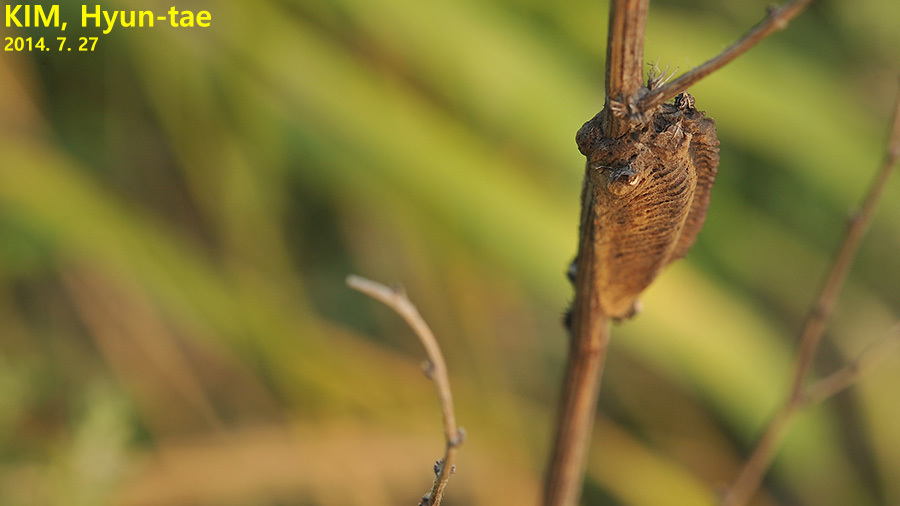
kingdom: Animalia
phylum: Arthropoda
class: Insecta
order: Mantodea
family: Mantidae
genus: Tenodera
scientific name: Tenodera angustipennis
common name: Asian mantis
